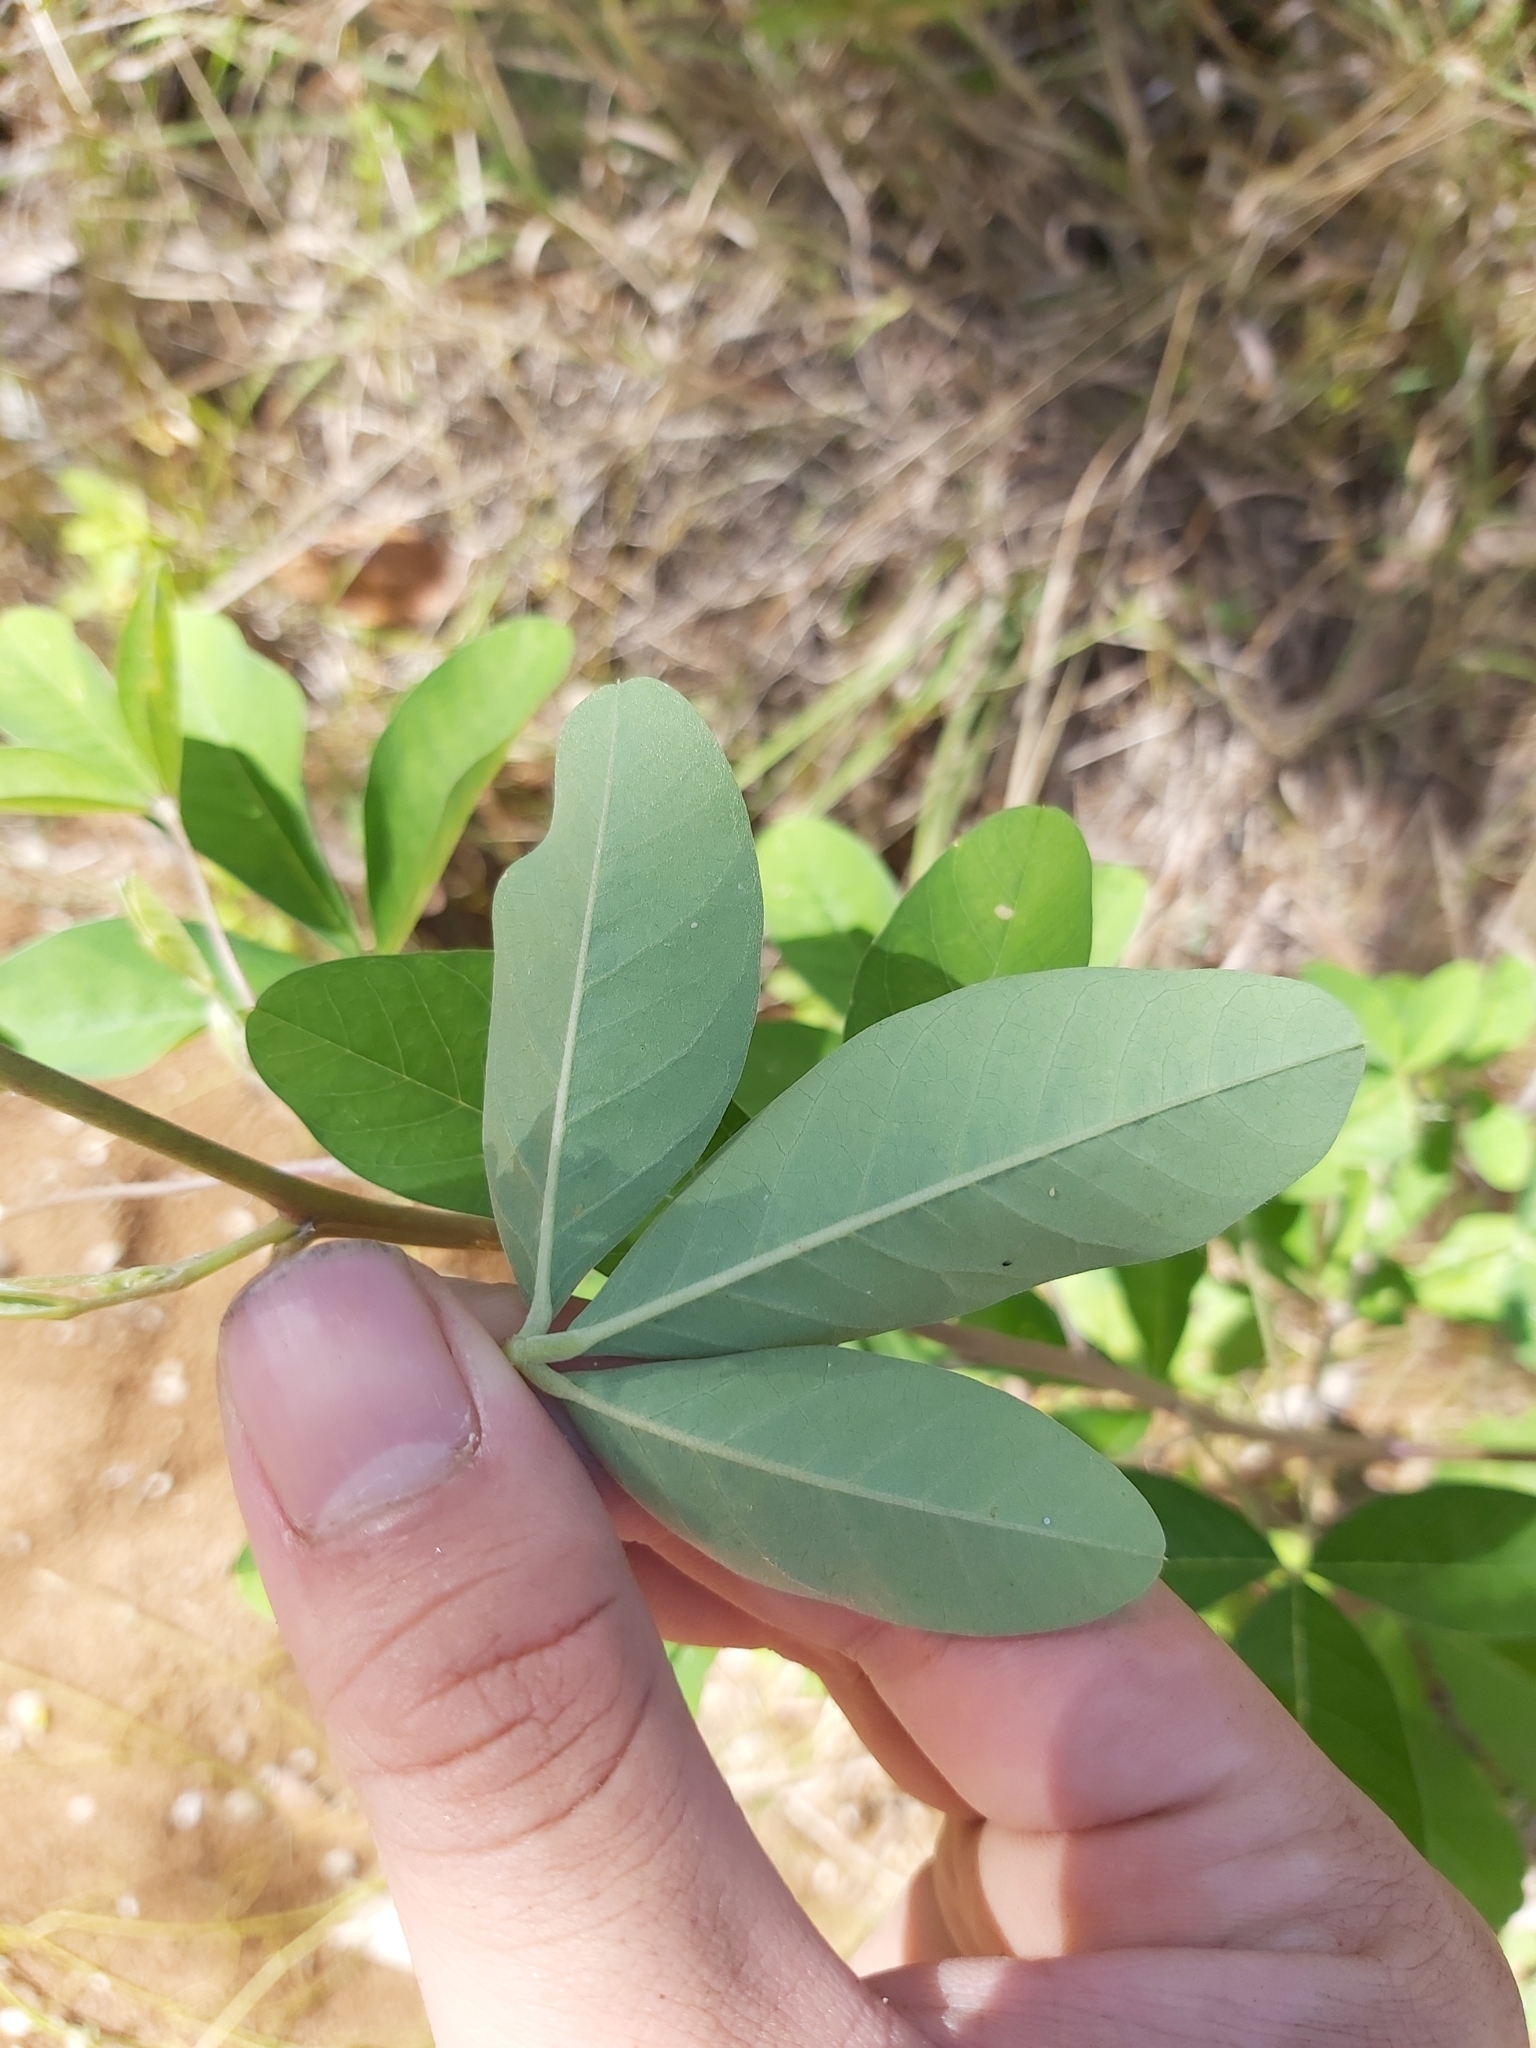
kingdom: Plantae
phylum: Tracheophyta
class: Magnoliopsida
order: Fabales
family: Fabaceae
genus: Crotalaria
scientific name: Crotalaria pallida
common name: Smooth rattlebox
